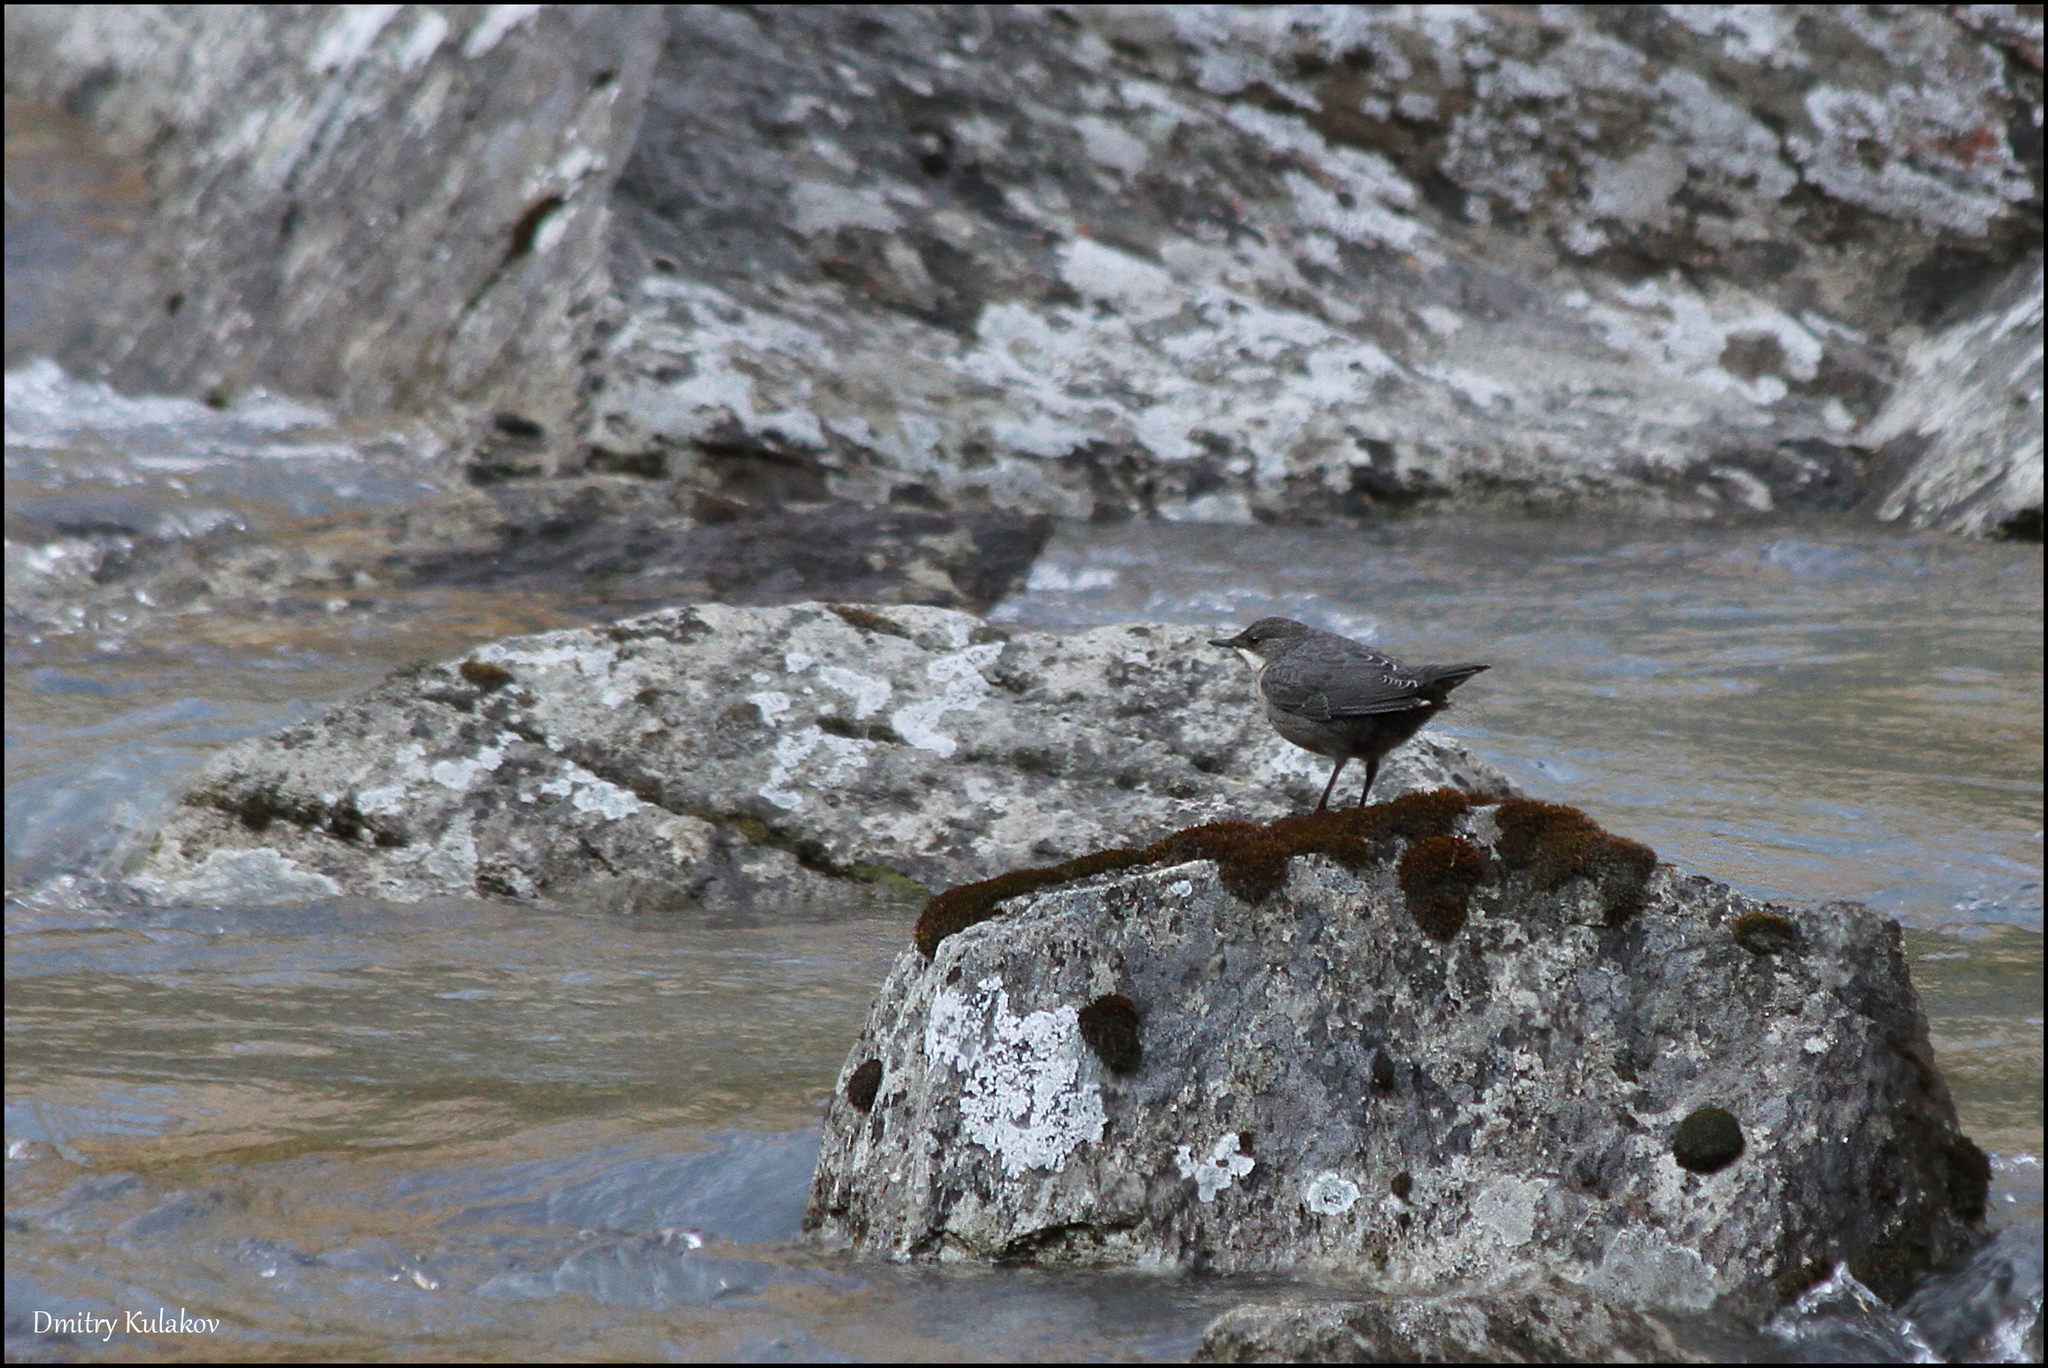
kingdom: Animalia
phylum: Chordata
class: Aves
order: Passeriformes
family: Cinclidae
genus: Cinclus
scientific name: Cinclus cinclus
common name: White-throated dipper
